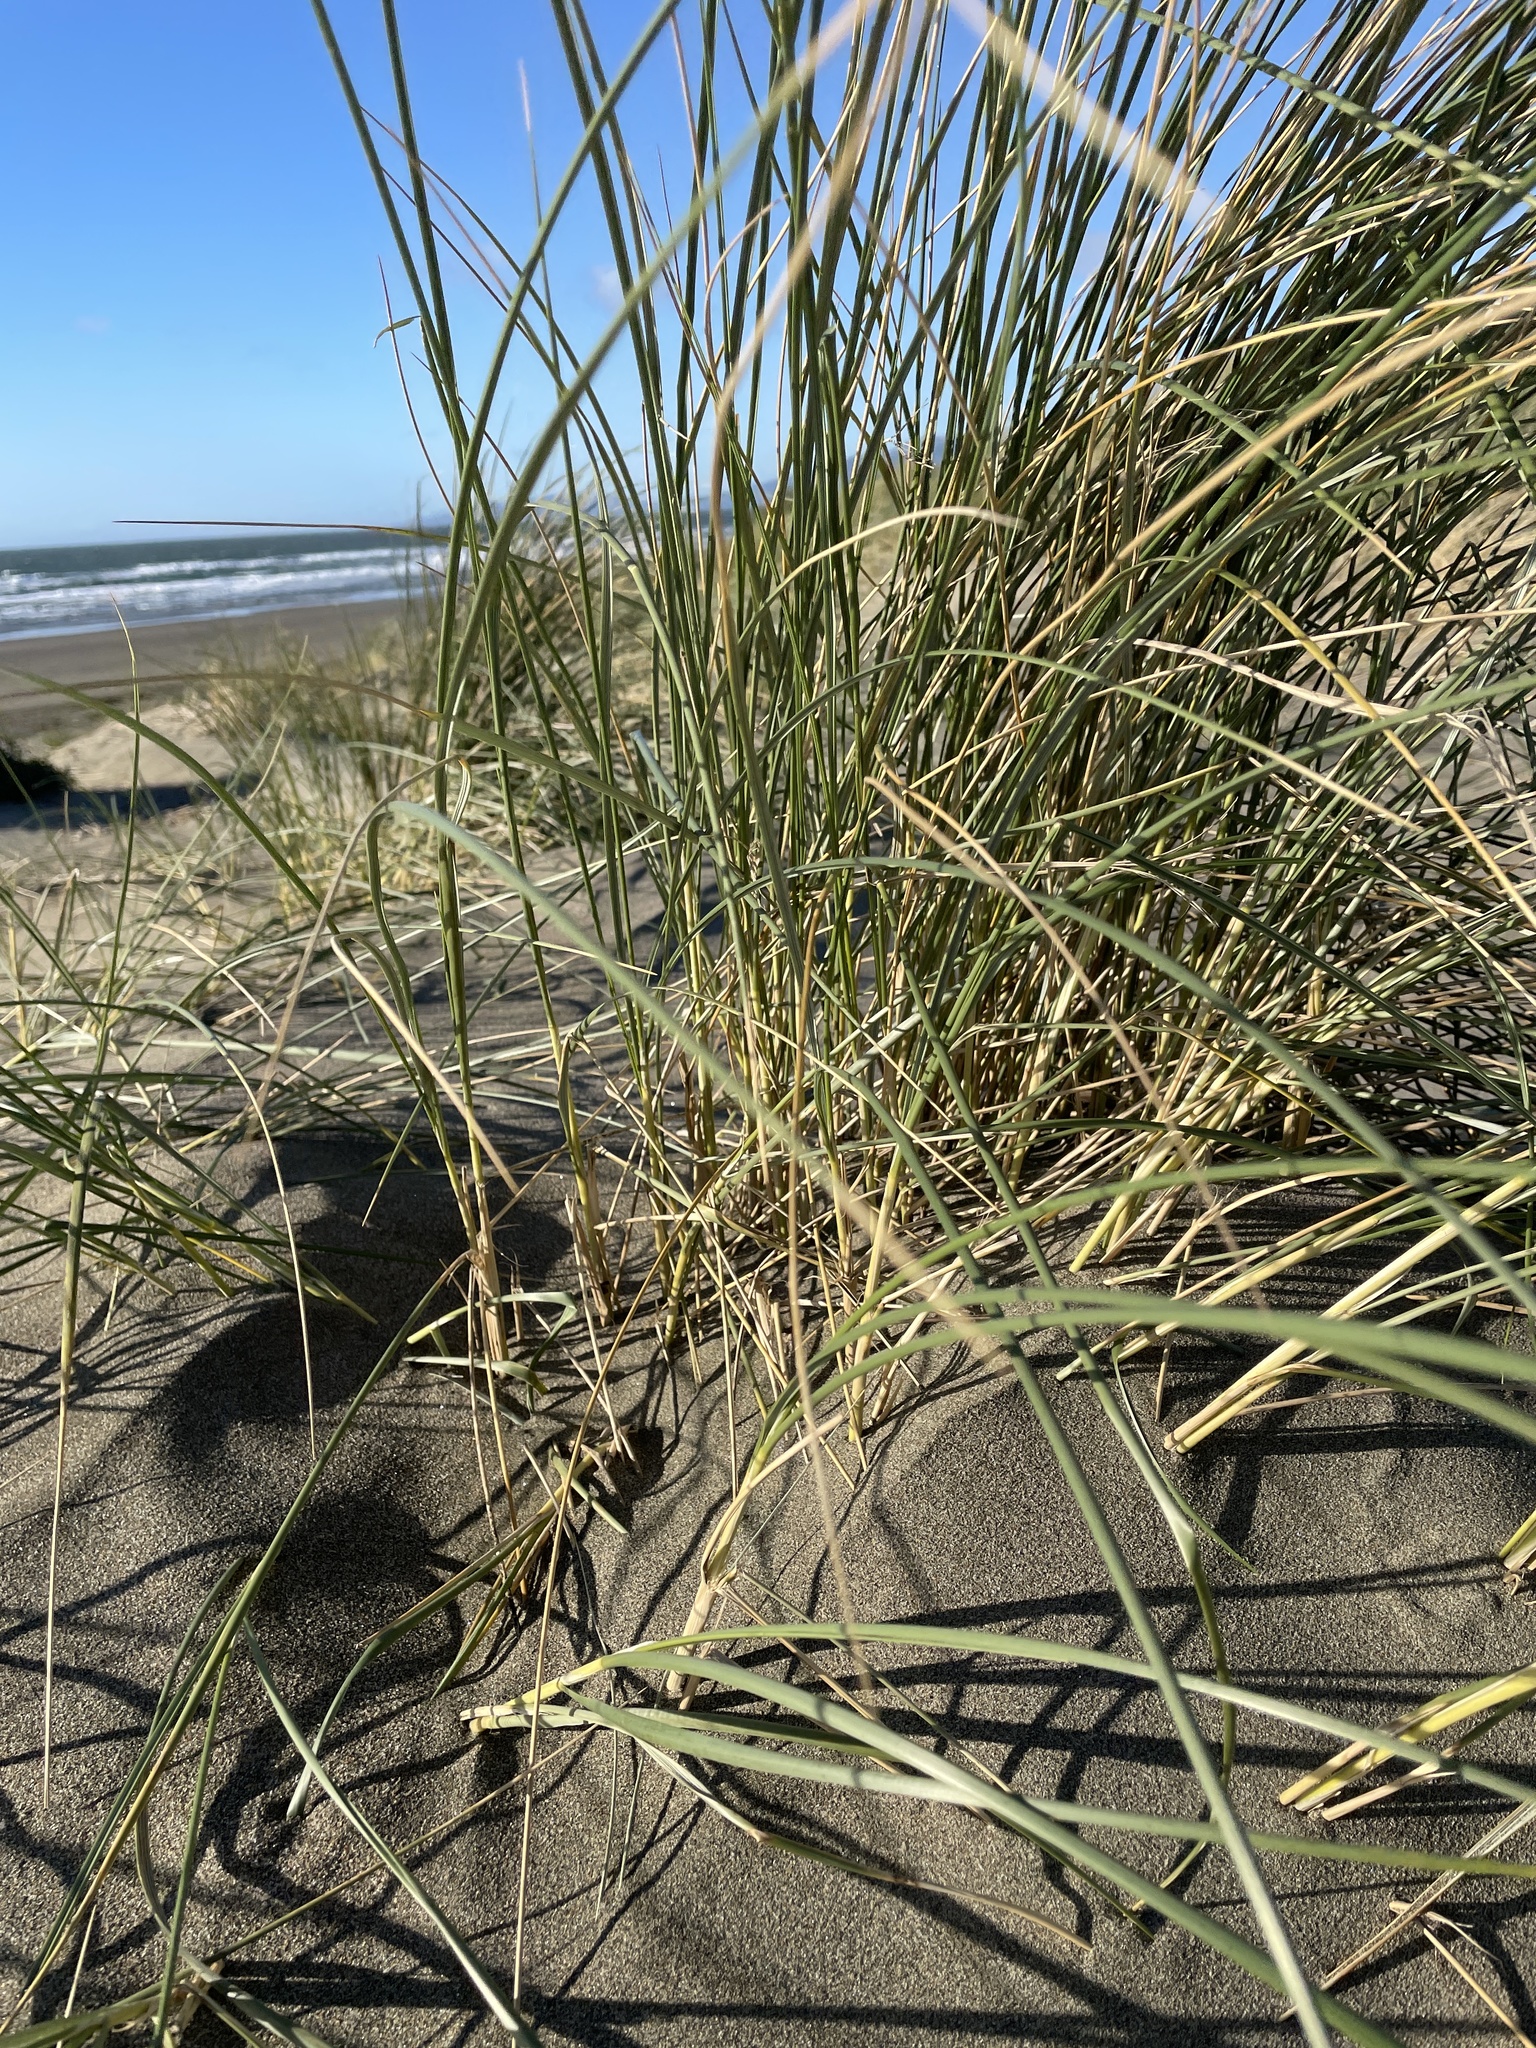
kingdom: Plantae
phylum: Tracheophyta
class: Liliopsida
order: Poales
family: Poaceae
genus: Calamagrostis
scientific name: Calamagrostis arenaria
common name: European beachgrass
